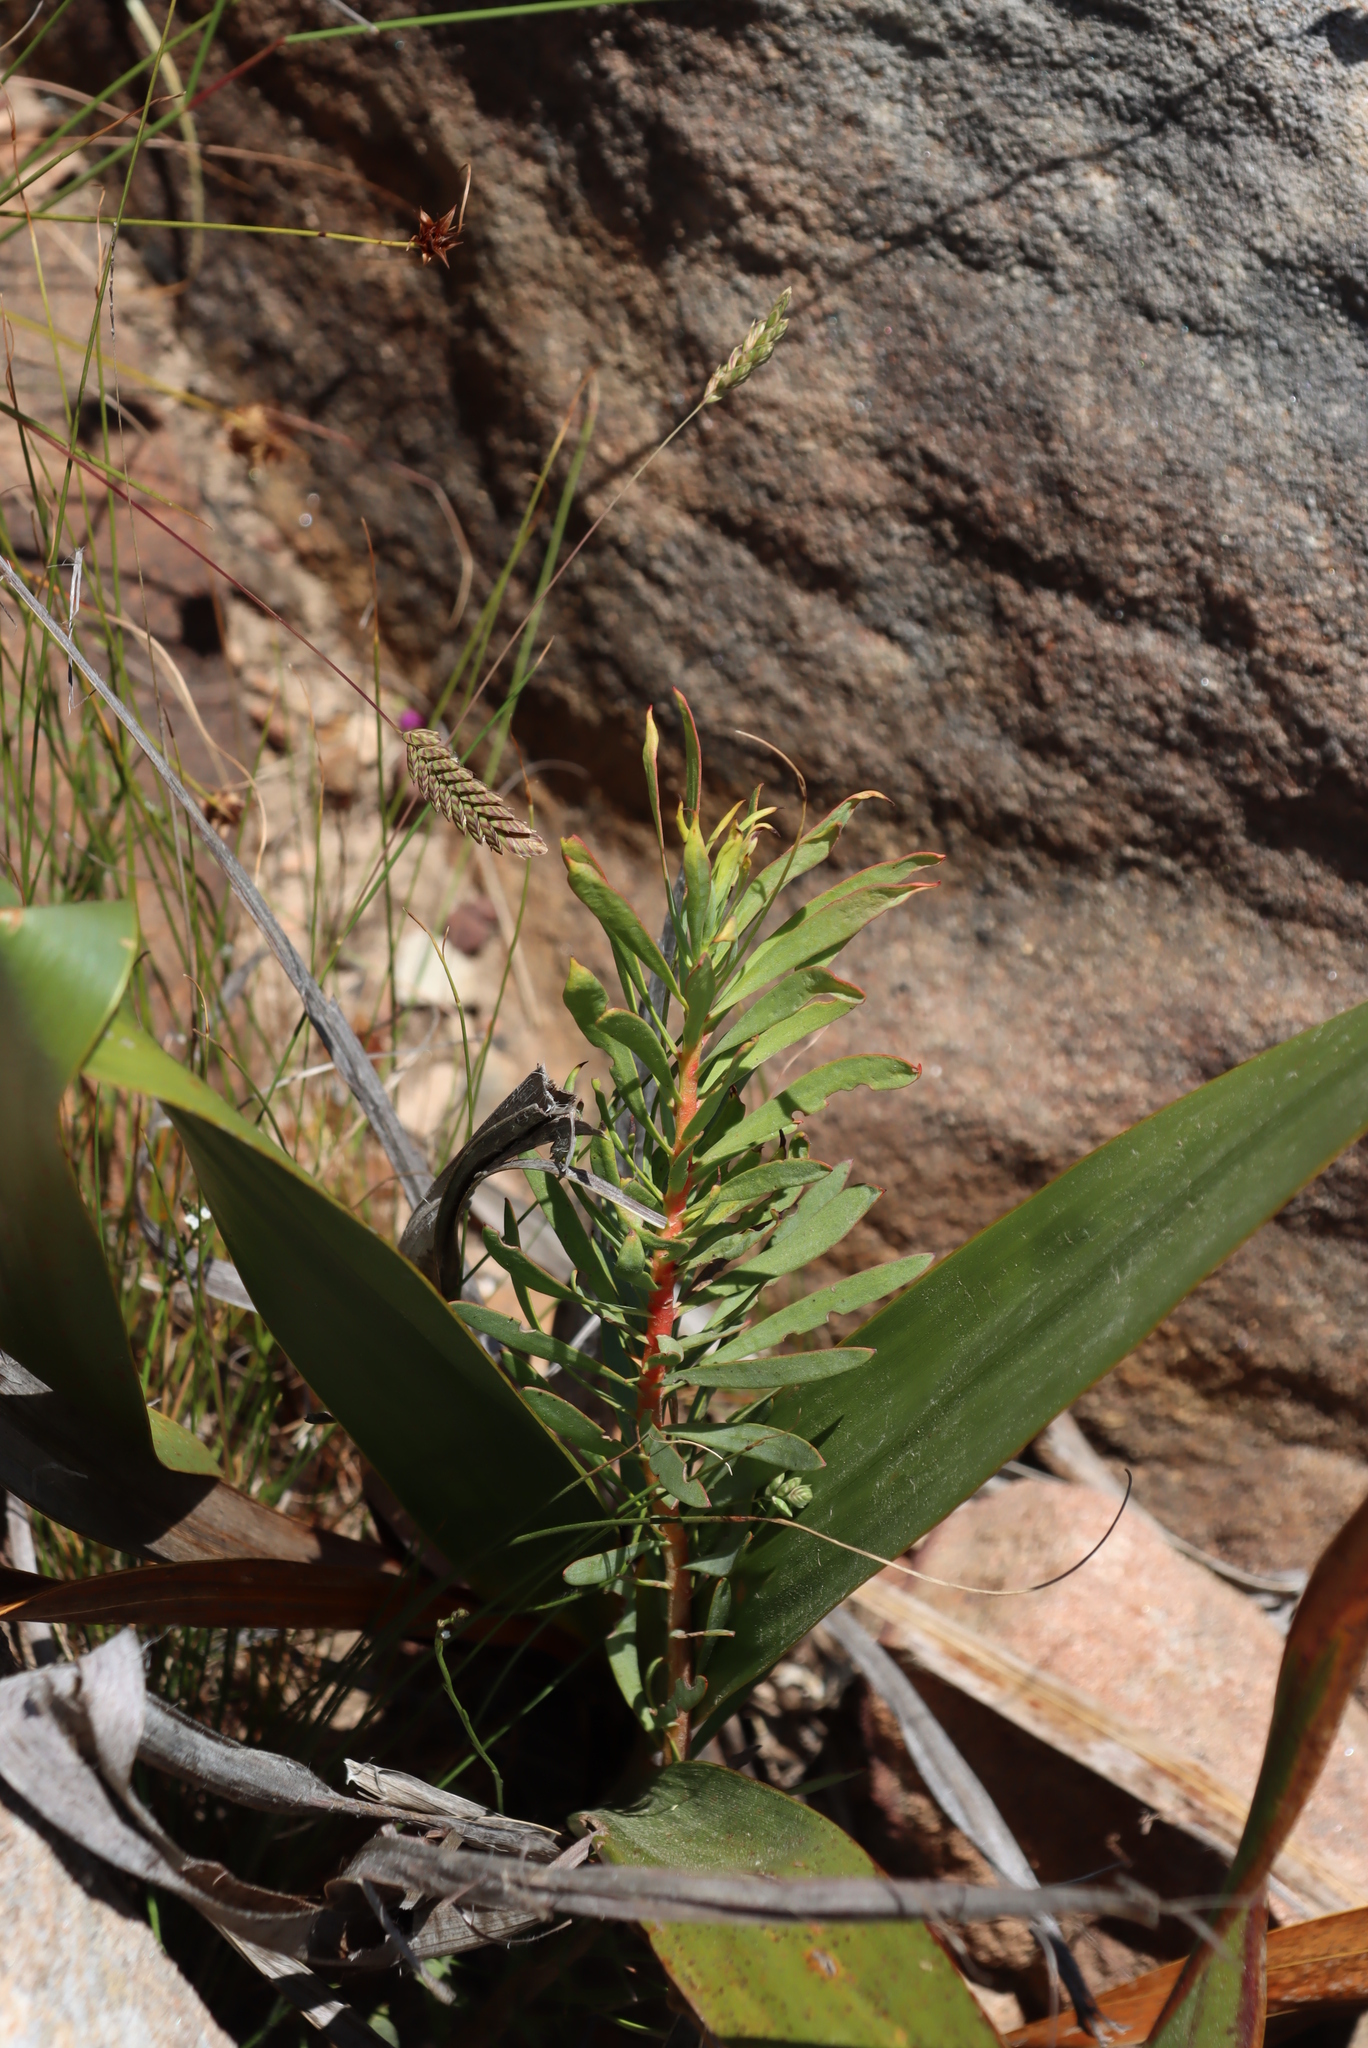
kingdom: Plantae
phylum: Tracheophyta
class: Magnoliopsida
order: Proteales
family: Proteaceae
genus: Protea
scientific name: Protea repens
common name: Sugarbush
